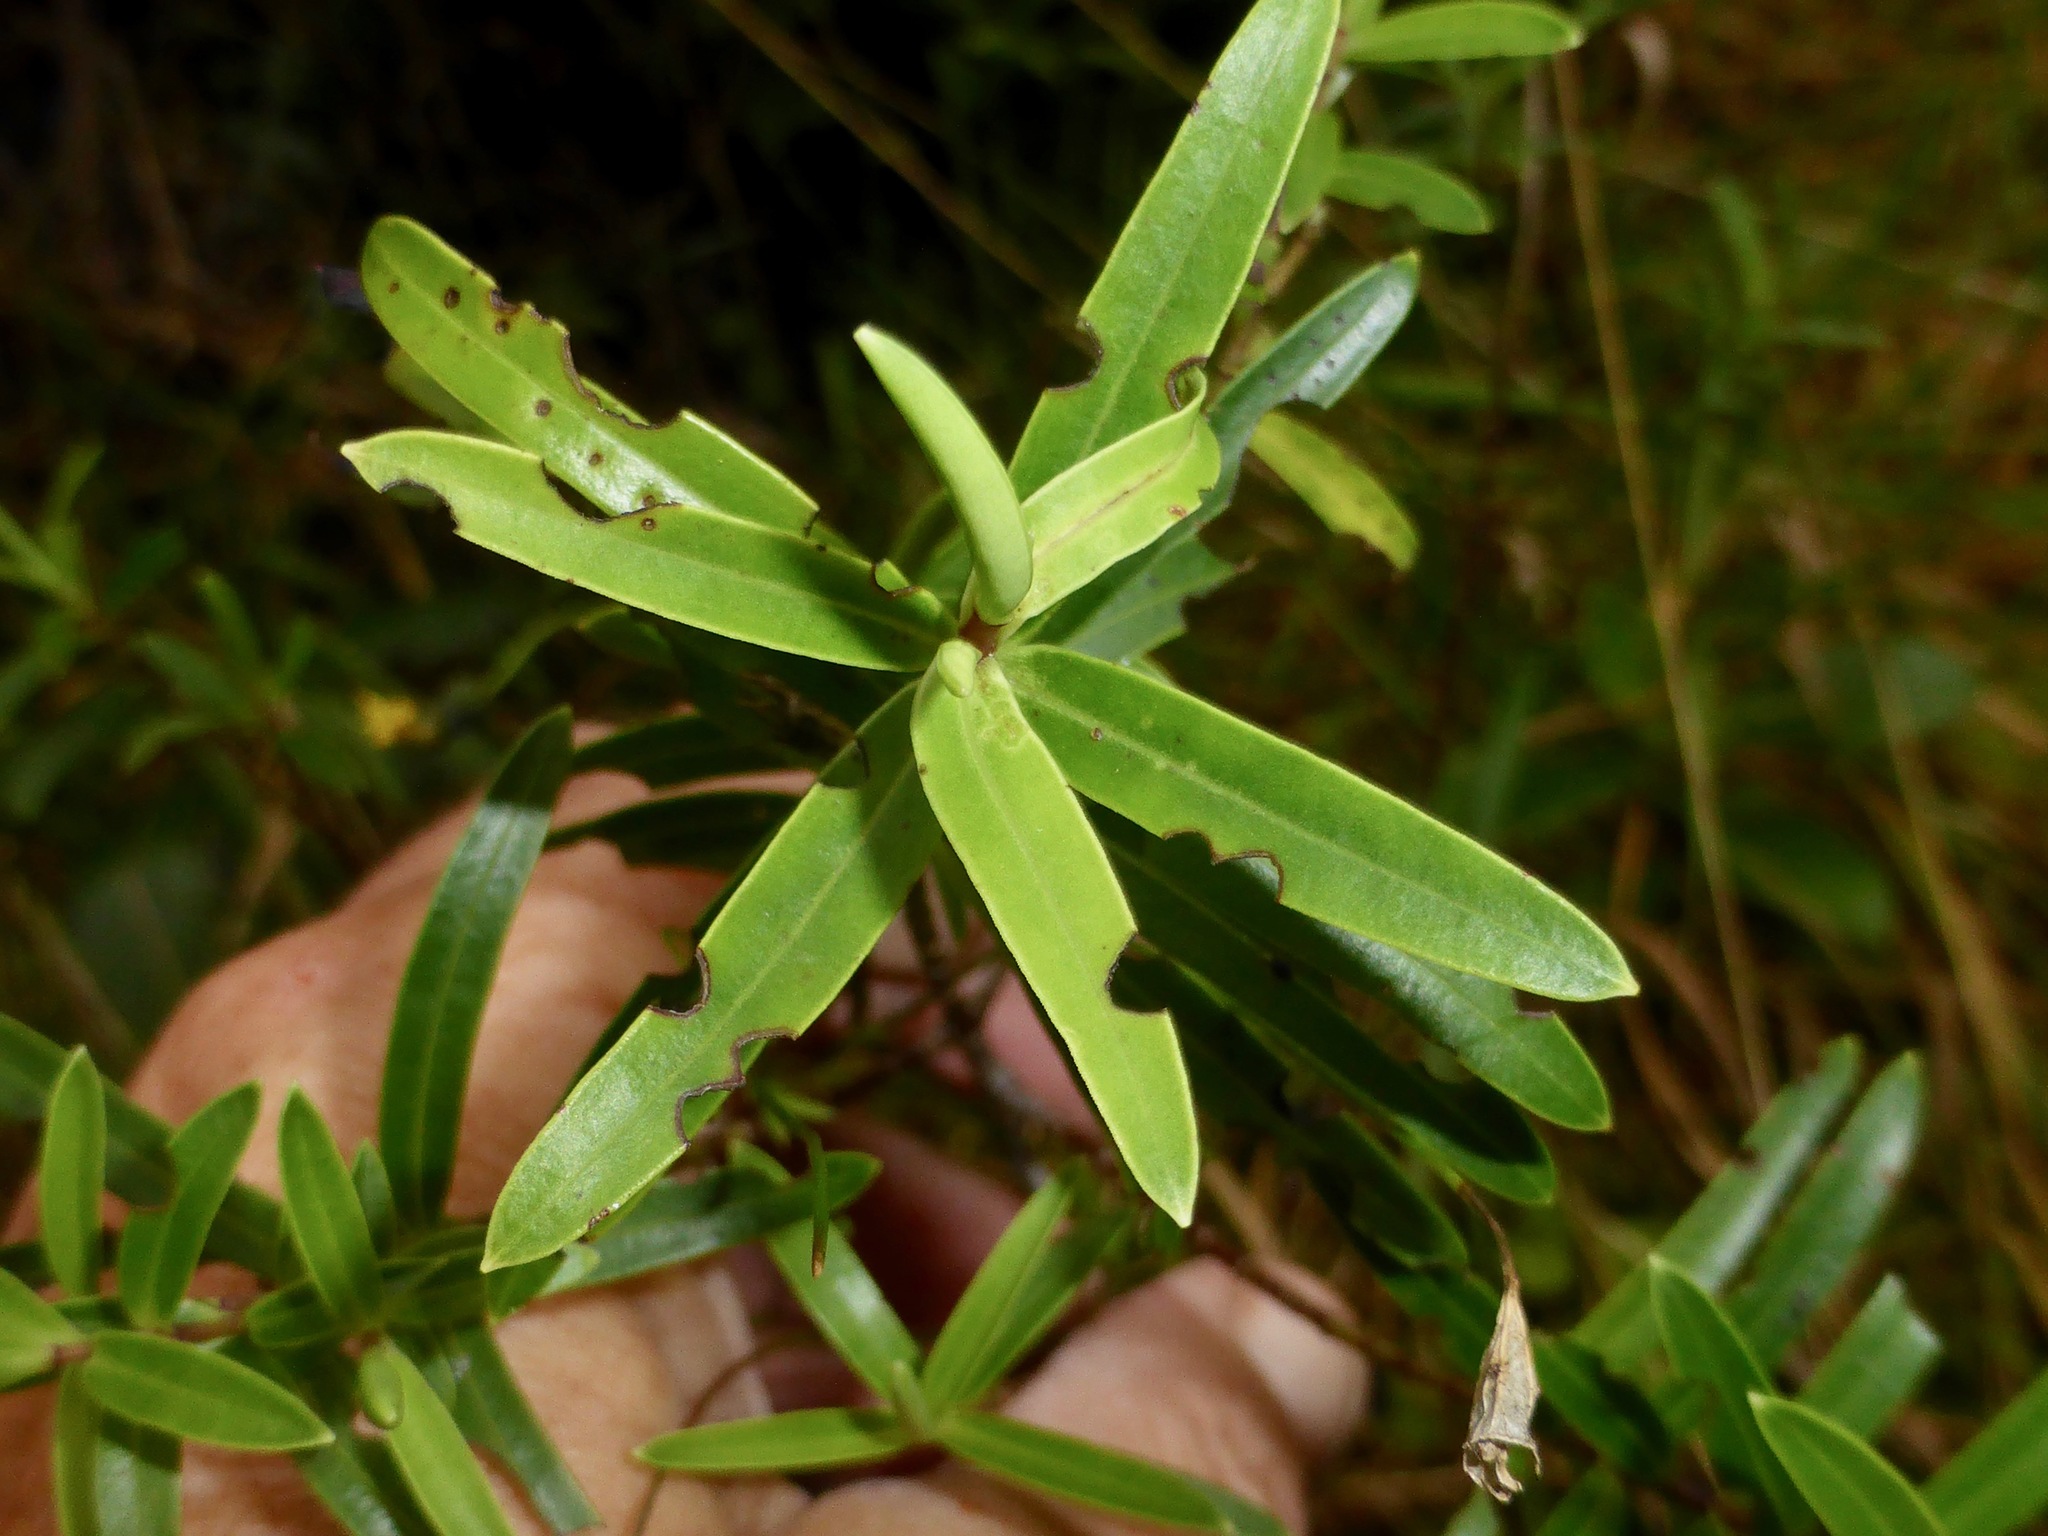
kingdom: Plantae
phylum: Tracheophyta
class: Magnoliopsida
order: Lamiales
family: Plantaginaceae
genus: Veronica
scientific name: Veronica strictissima
